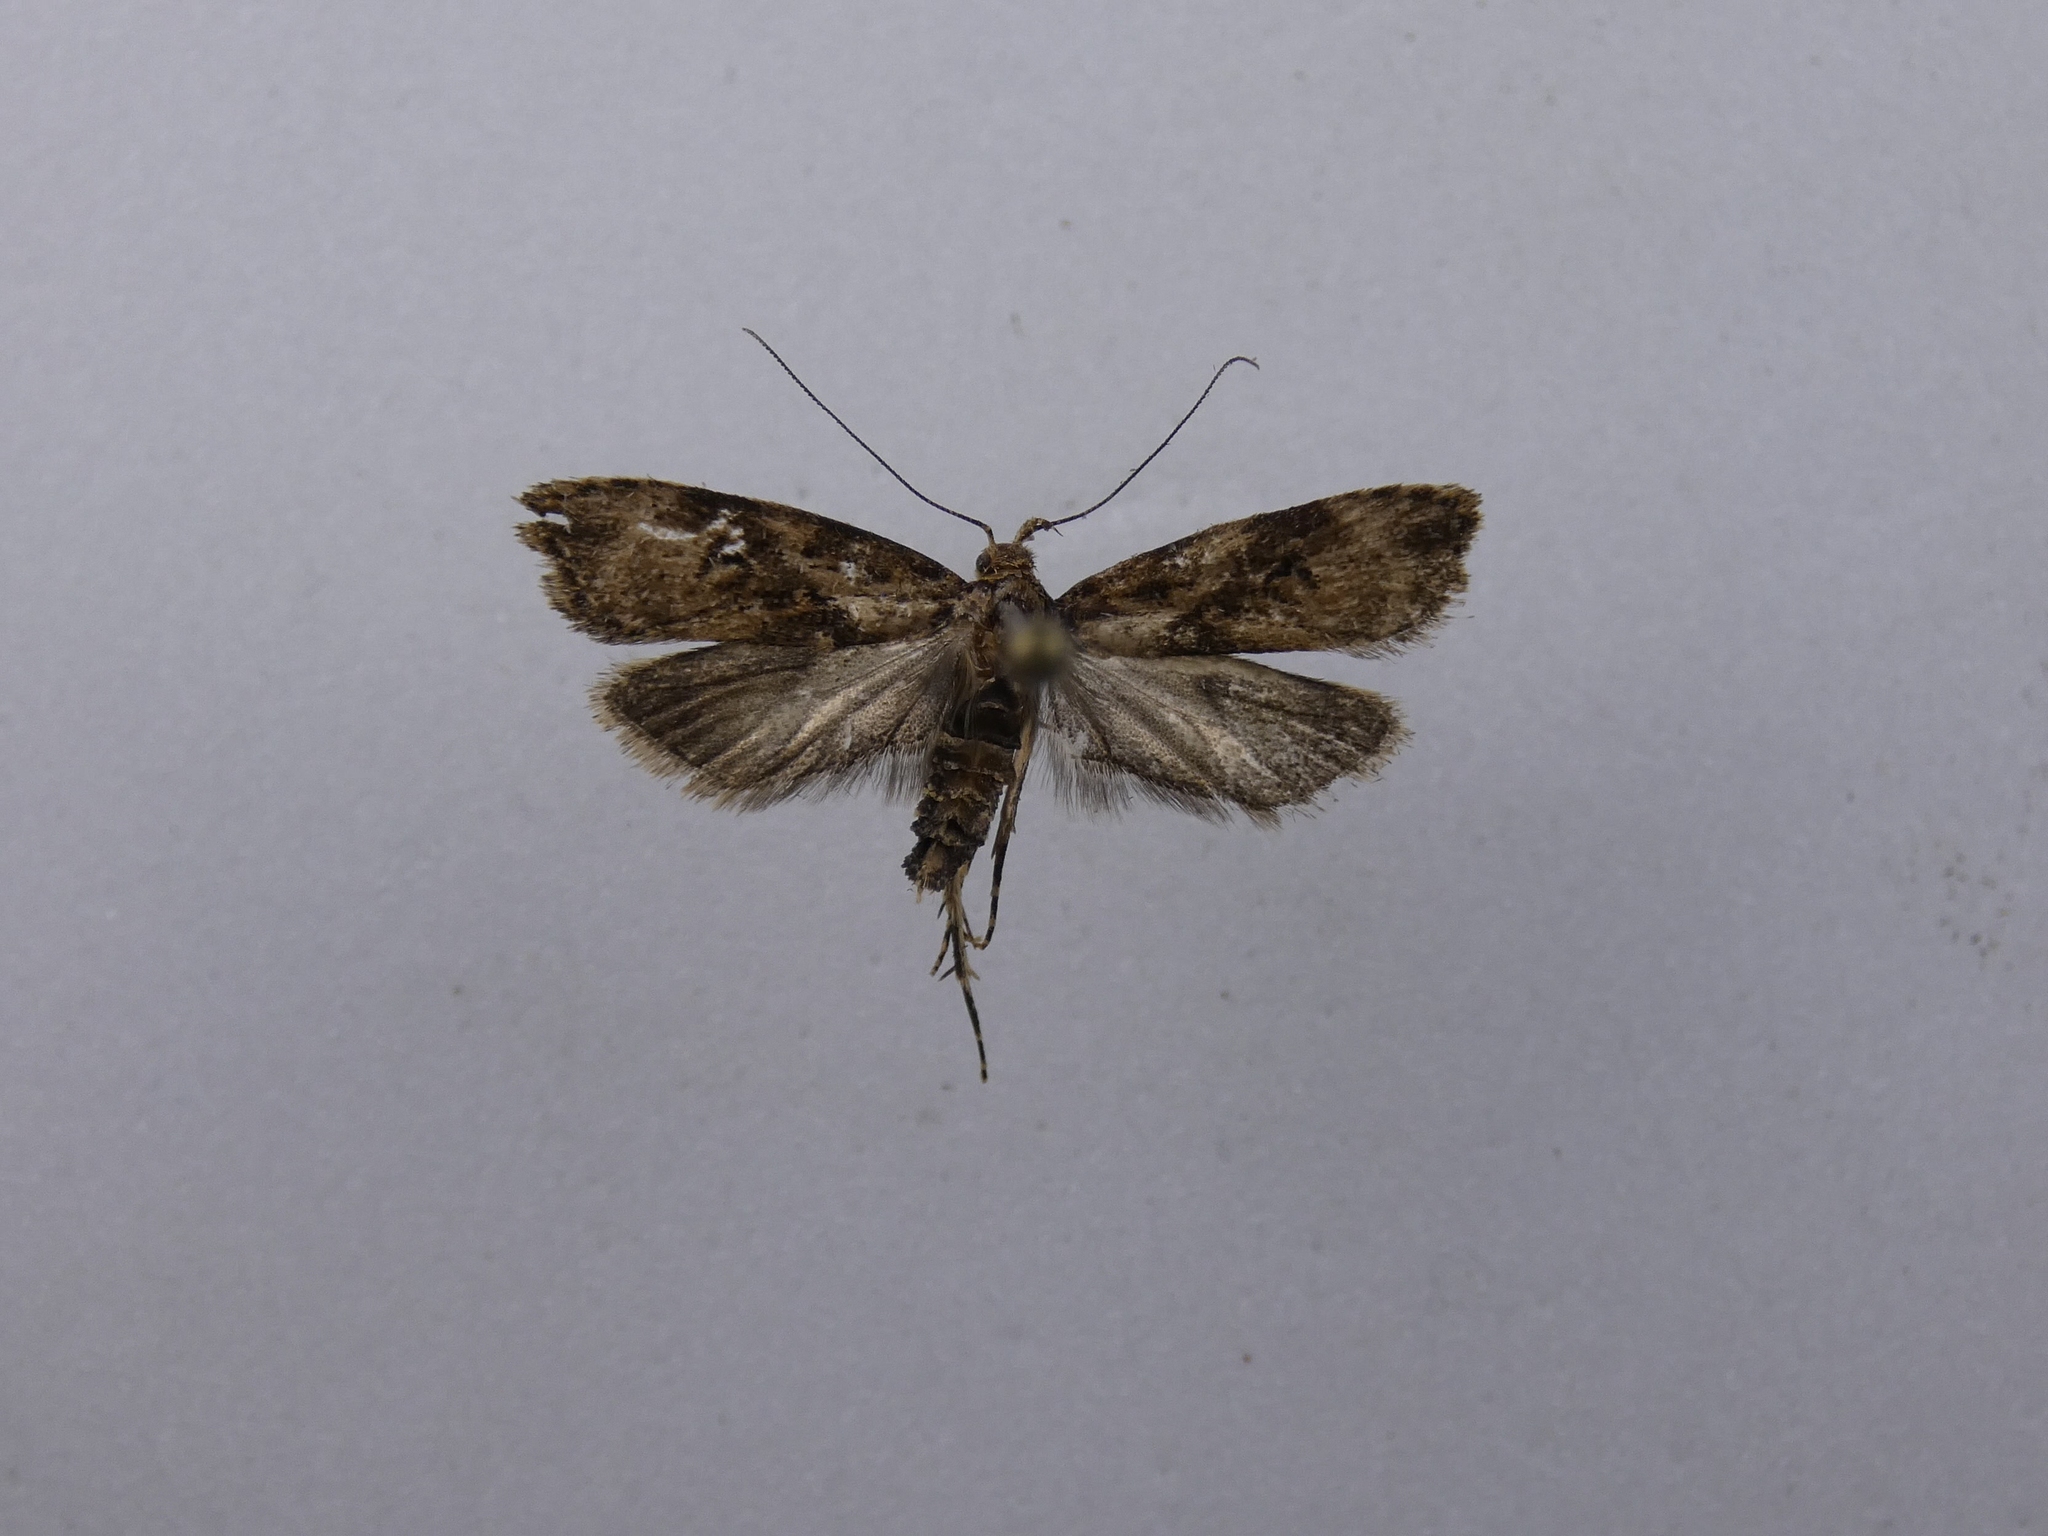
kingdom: Animalia
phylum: Arthropoda
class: Insecta
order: Lepidoptera
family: Oecophoridae
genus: Izatha
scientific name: Izatha austera
